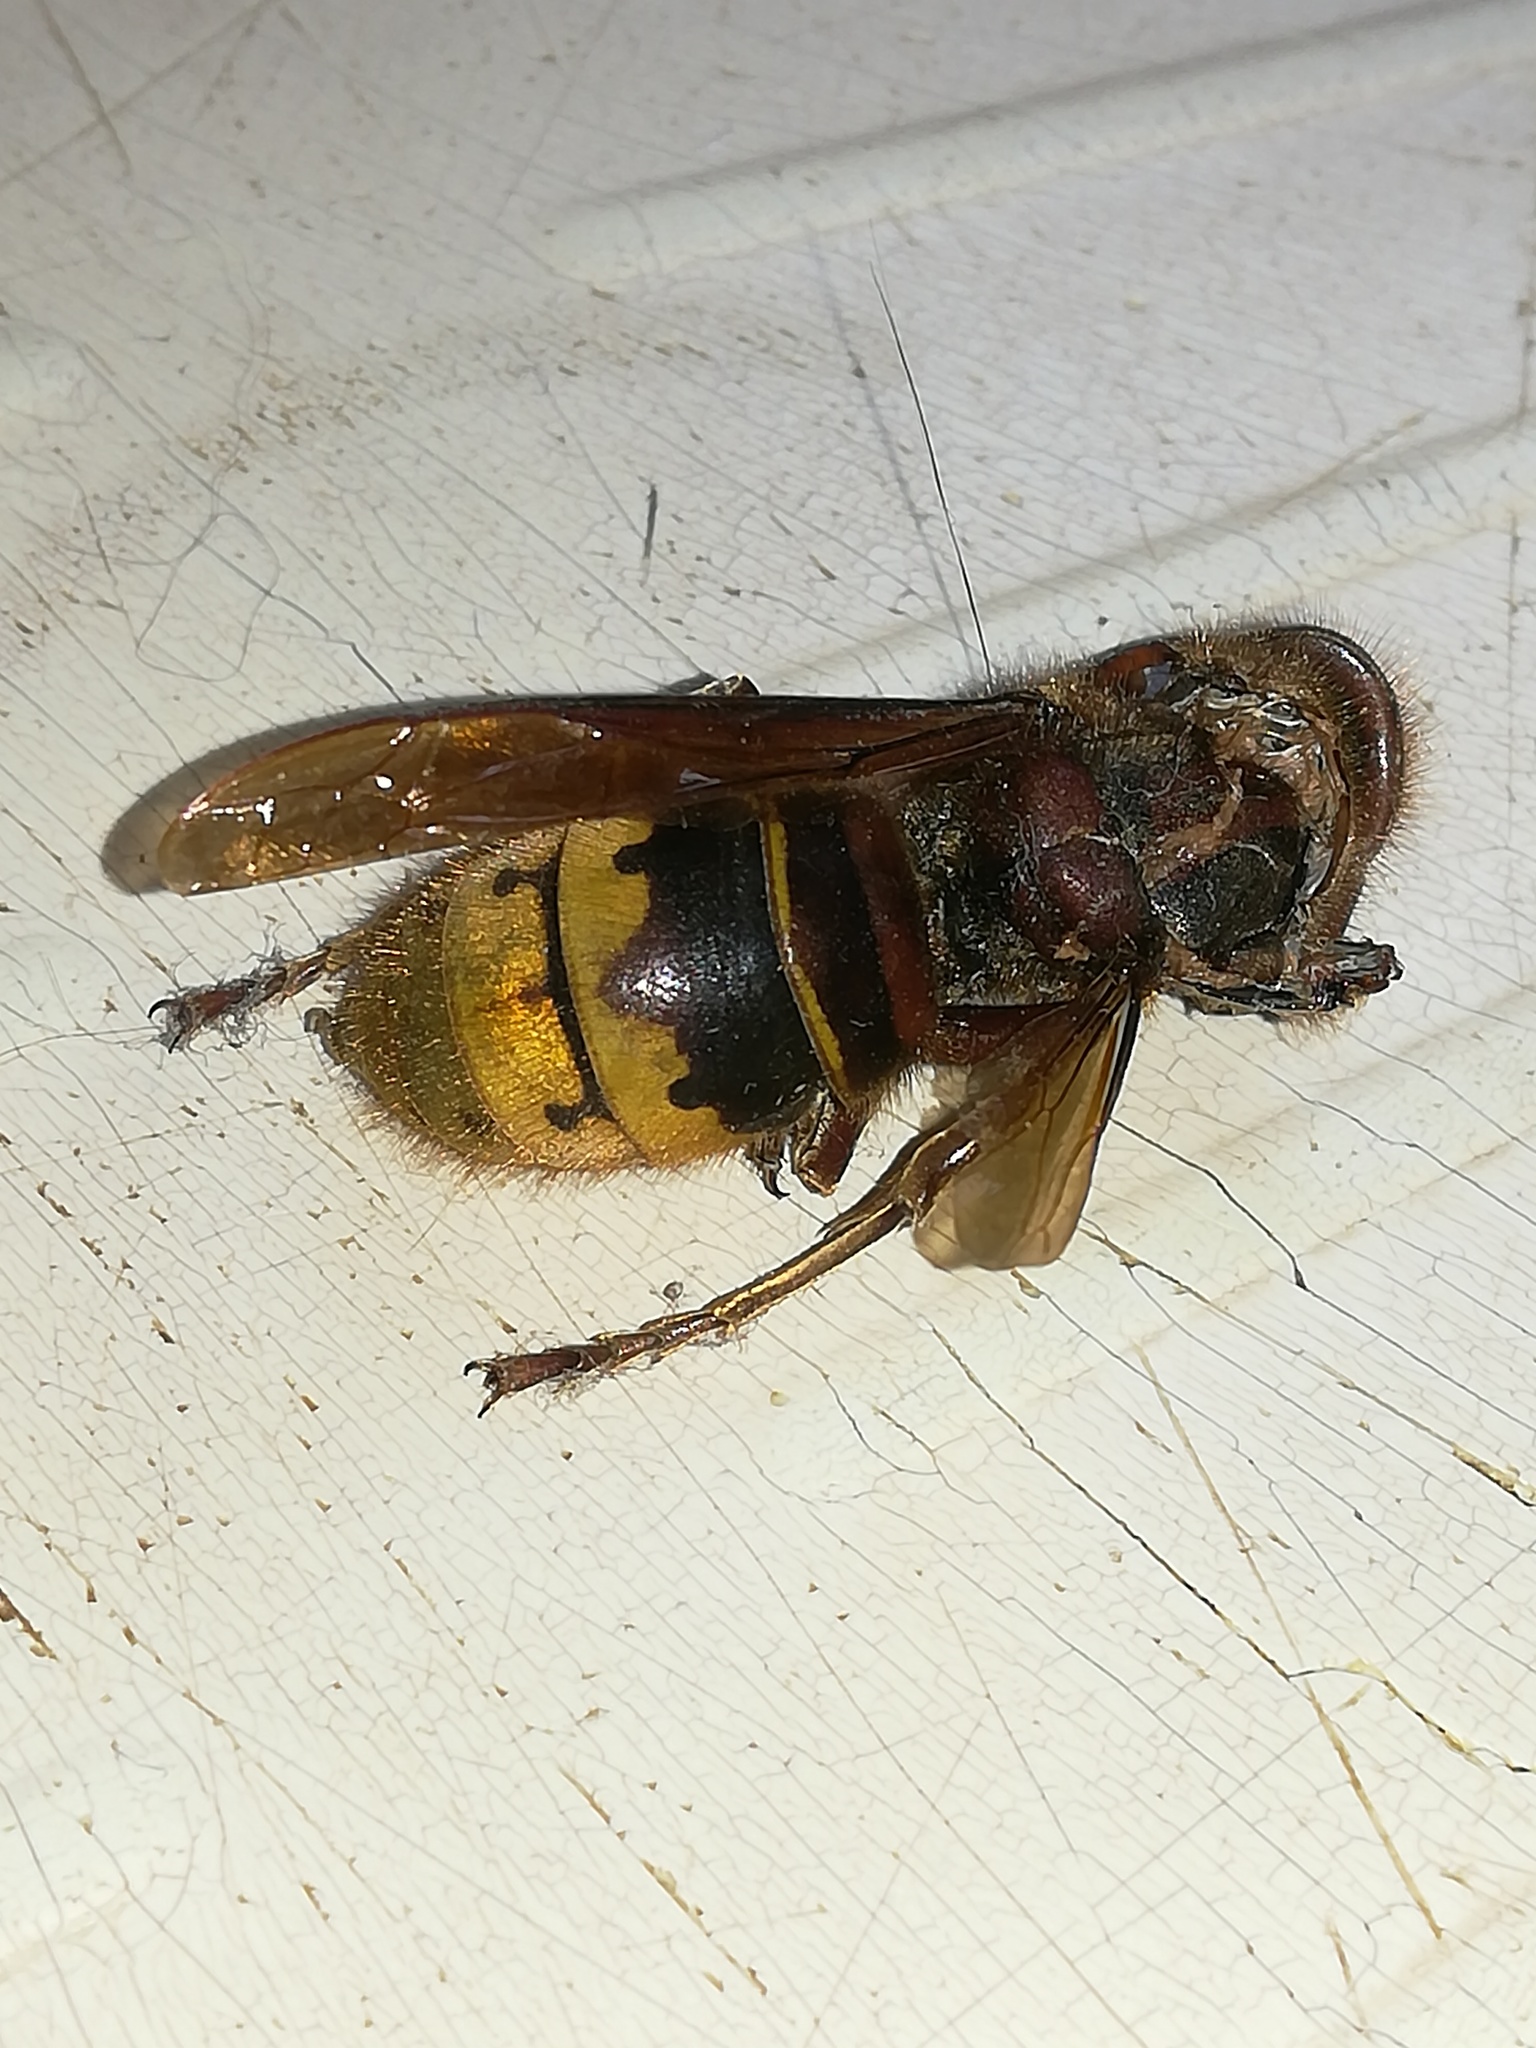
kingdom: Animalia
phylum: Arthropoda
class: Insecta
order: Hymenoptera
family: Vespidae
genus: Vespa
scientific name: Vespa crabro
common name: Hornet
